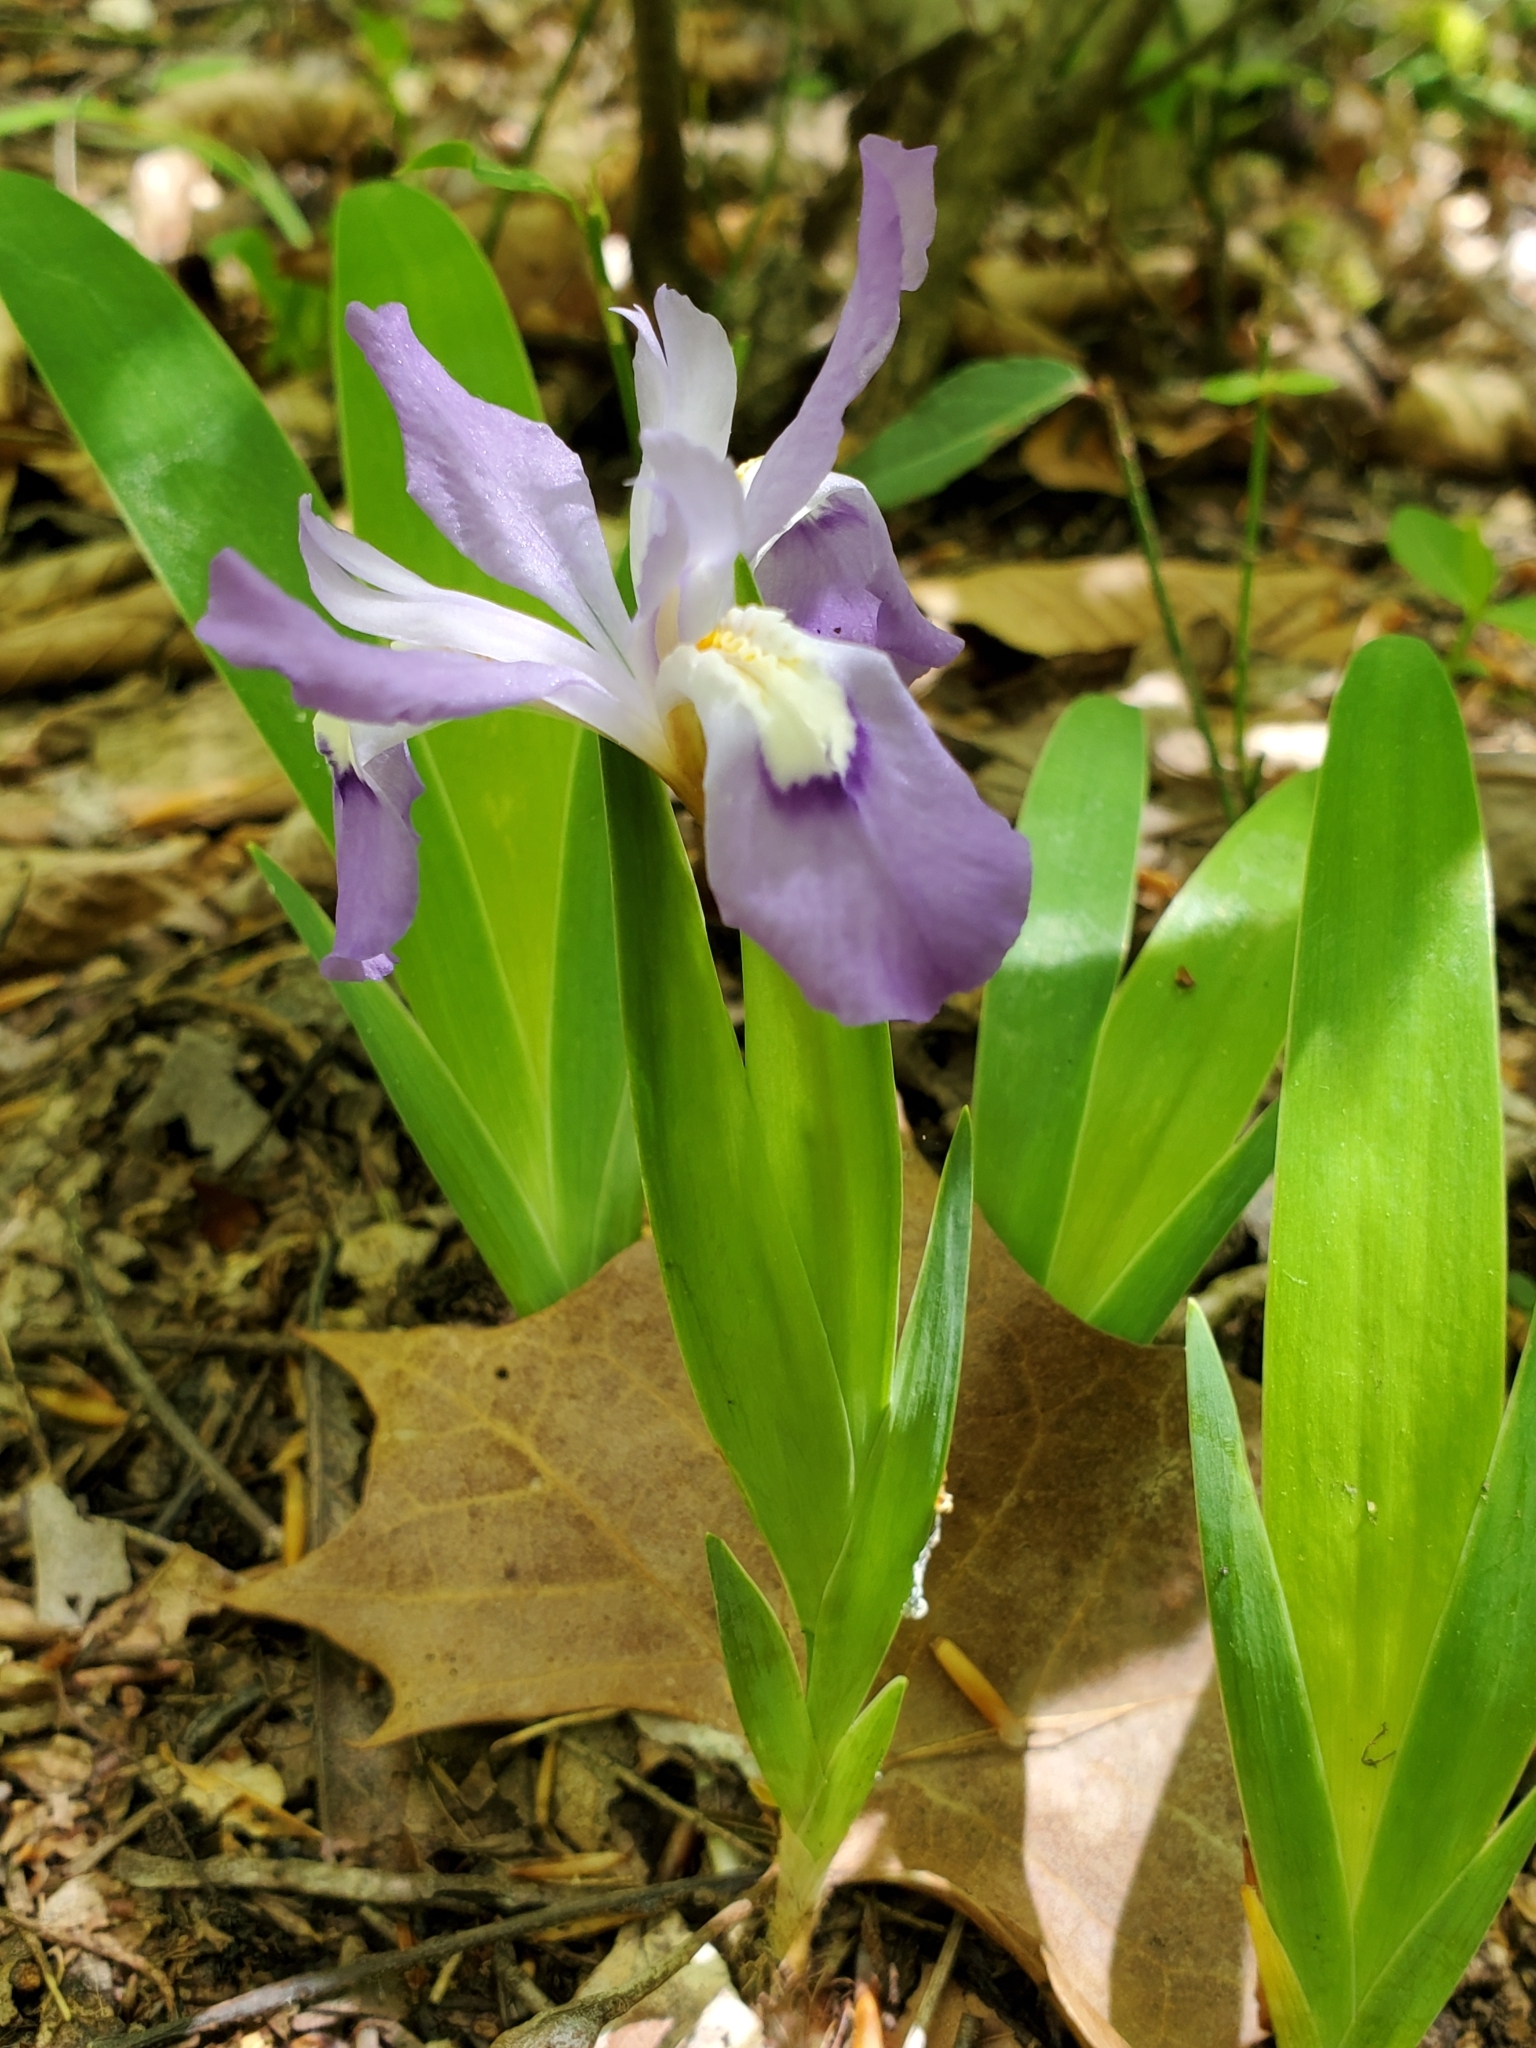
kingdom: Plantae
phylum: Tracheophyta
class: Liliopsida
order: Asparagales
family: Iridaceae
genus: Iris
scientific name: Iris cristata
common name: Crested iris
